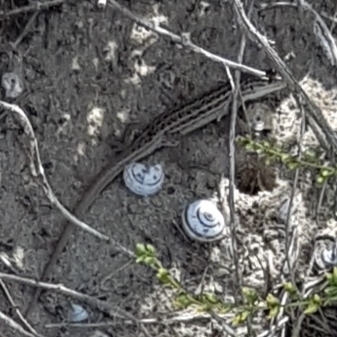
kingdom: Animalia
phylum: Chordata
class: Squamata
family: Lacertidae
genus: Psammodromus
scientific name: Psammodromus edwarsianus
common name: East iberian psammodromus
